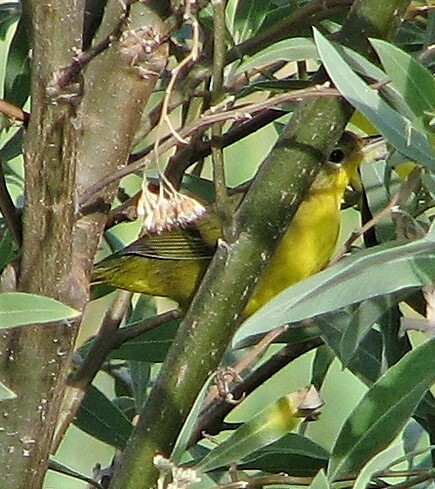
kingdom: Animalia
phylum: Chordata
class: Aves
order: Passeriformes
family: Parulidae
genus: Geothlypis
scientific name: Geothlypis velata
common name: Southern yellowthroat
